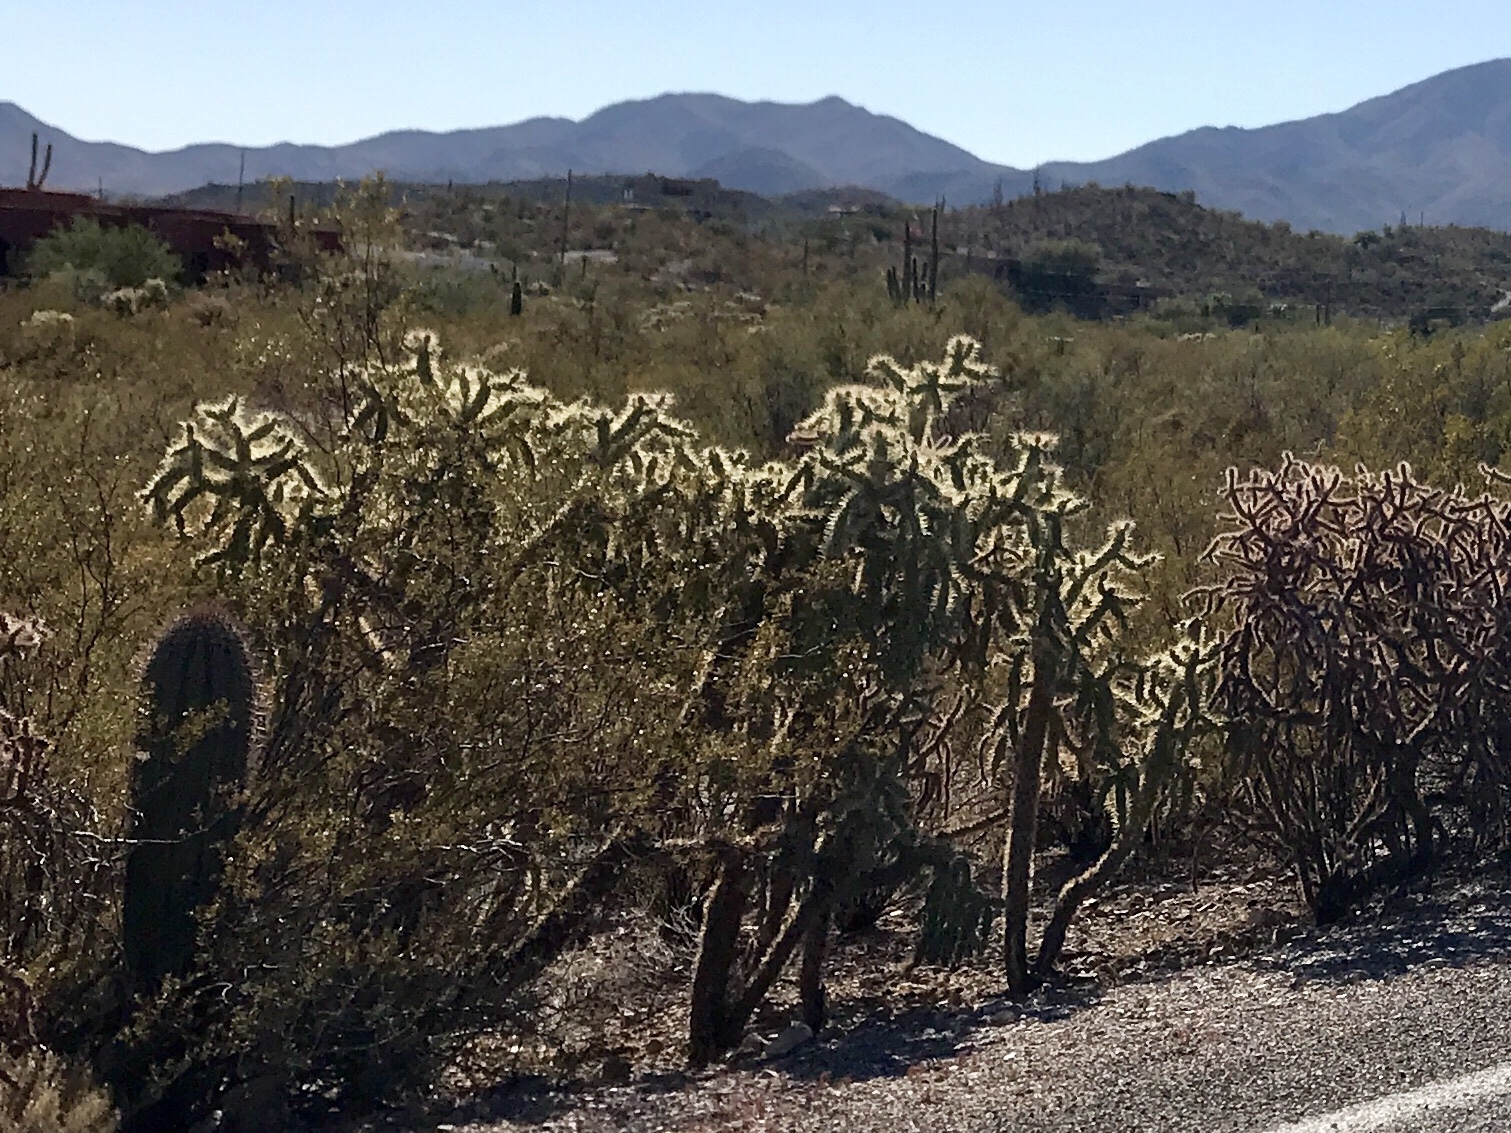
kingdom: Plantae
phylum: Tracheophyta
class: Magnoliopsida
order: Caryophyllales
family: Cactaceae
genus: Cylindropuntia
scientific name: Cylindropuntia fulgida
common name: Jumping cholla
